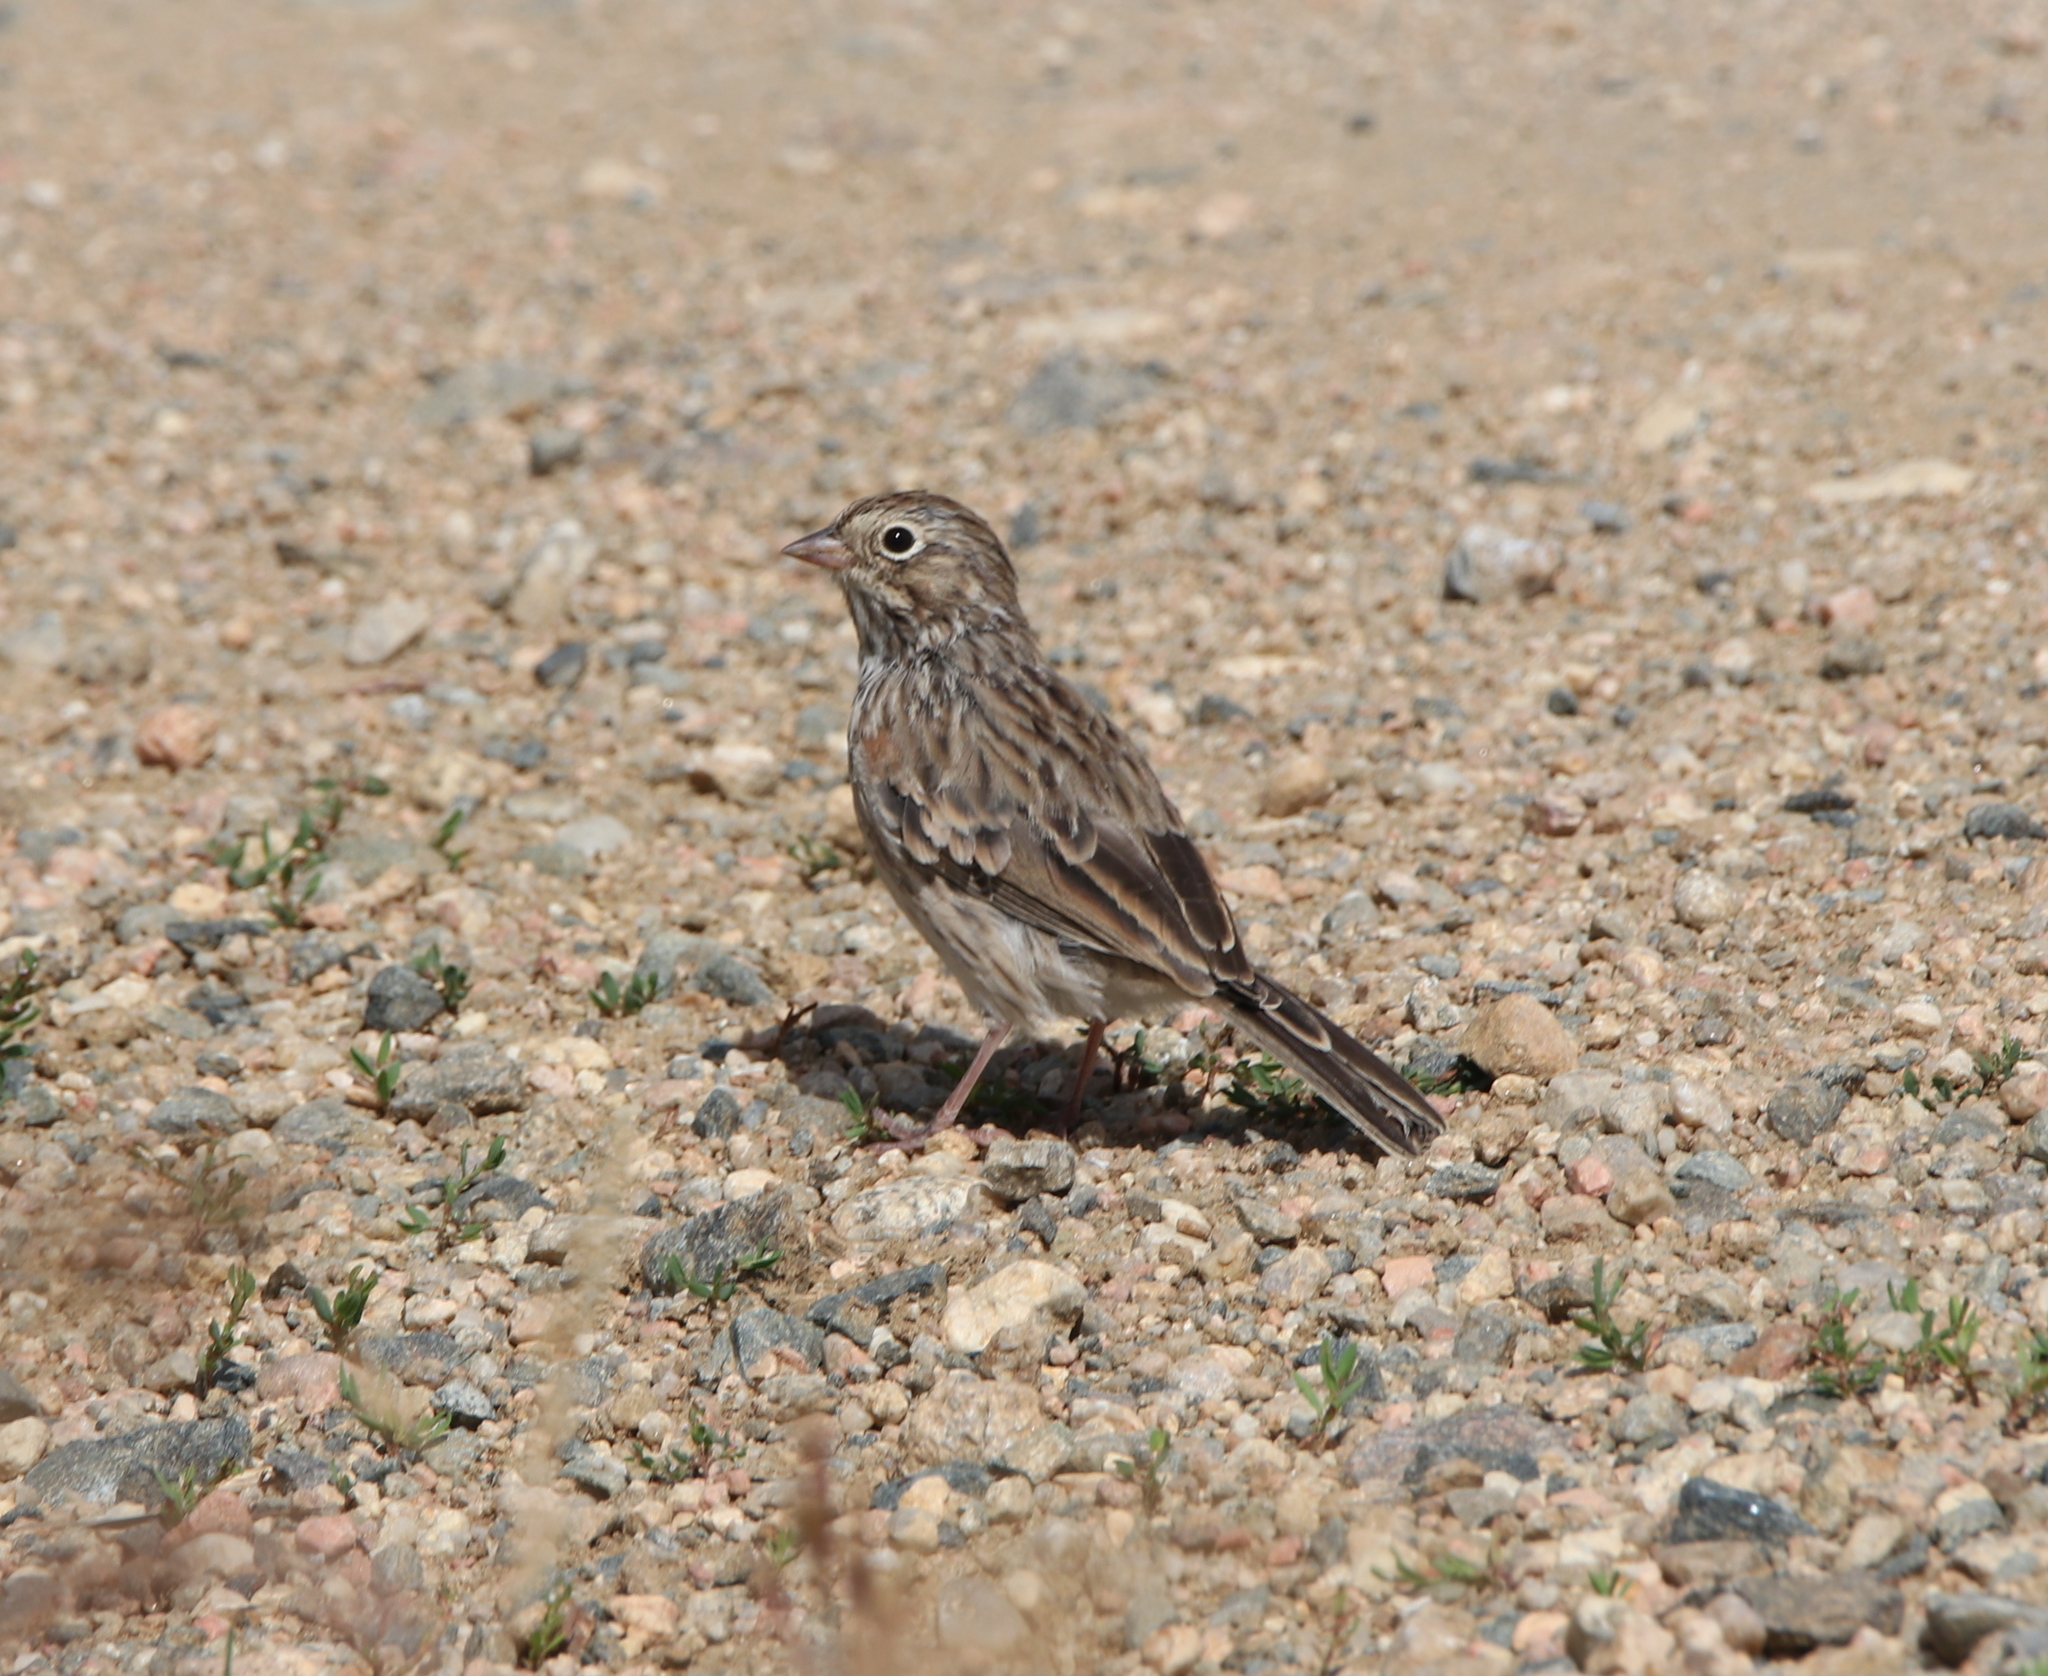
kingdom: Animalia
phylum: Chordata
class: Aves
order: Passeriformes
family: Passerellidae
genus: Pooecetes
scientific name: Pooecetes gramineus
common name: Vesper sparrow
